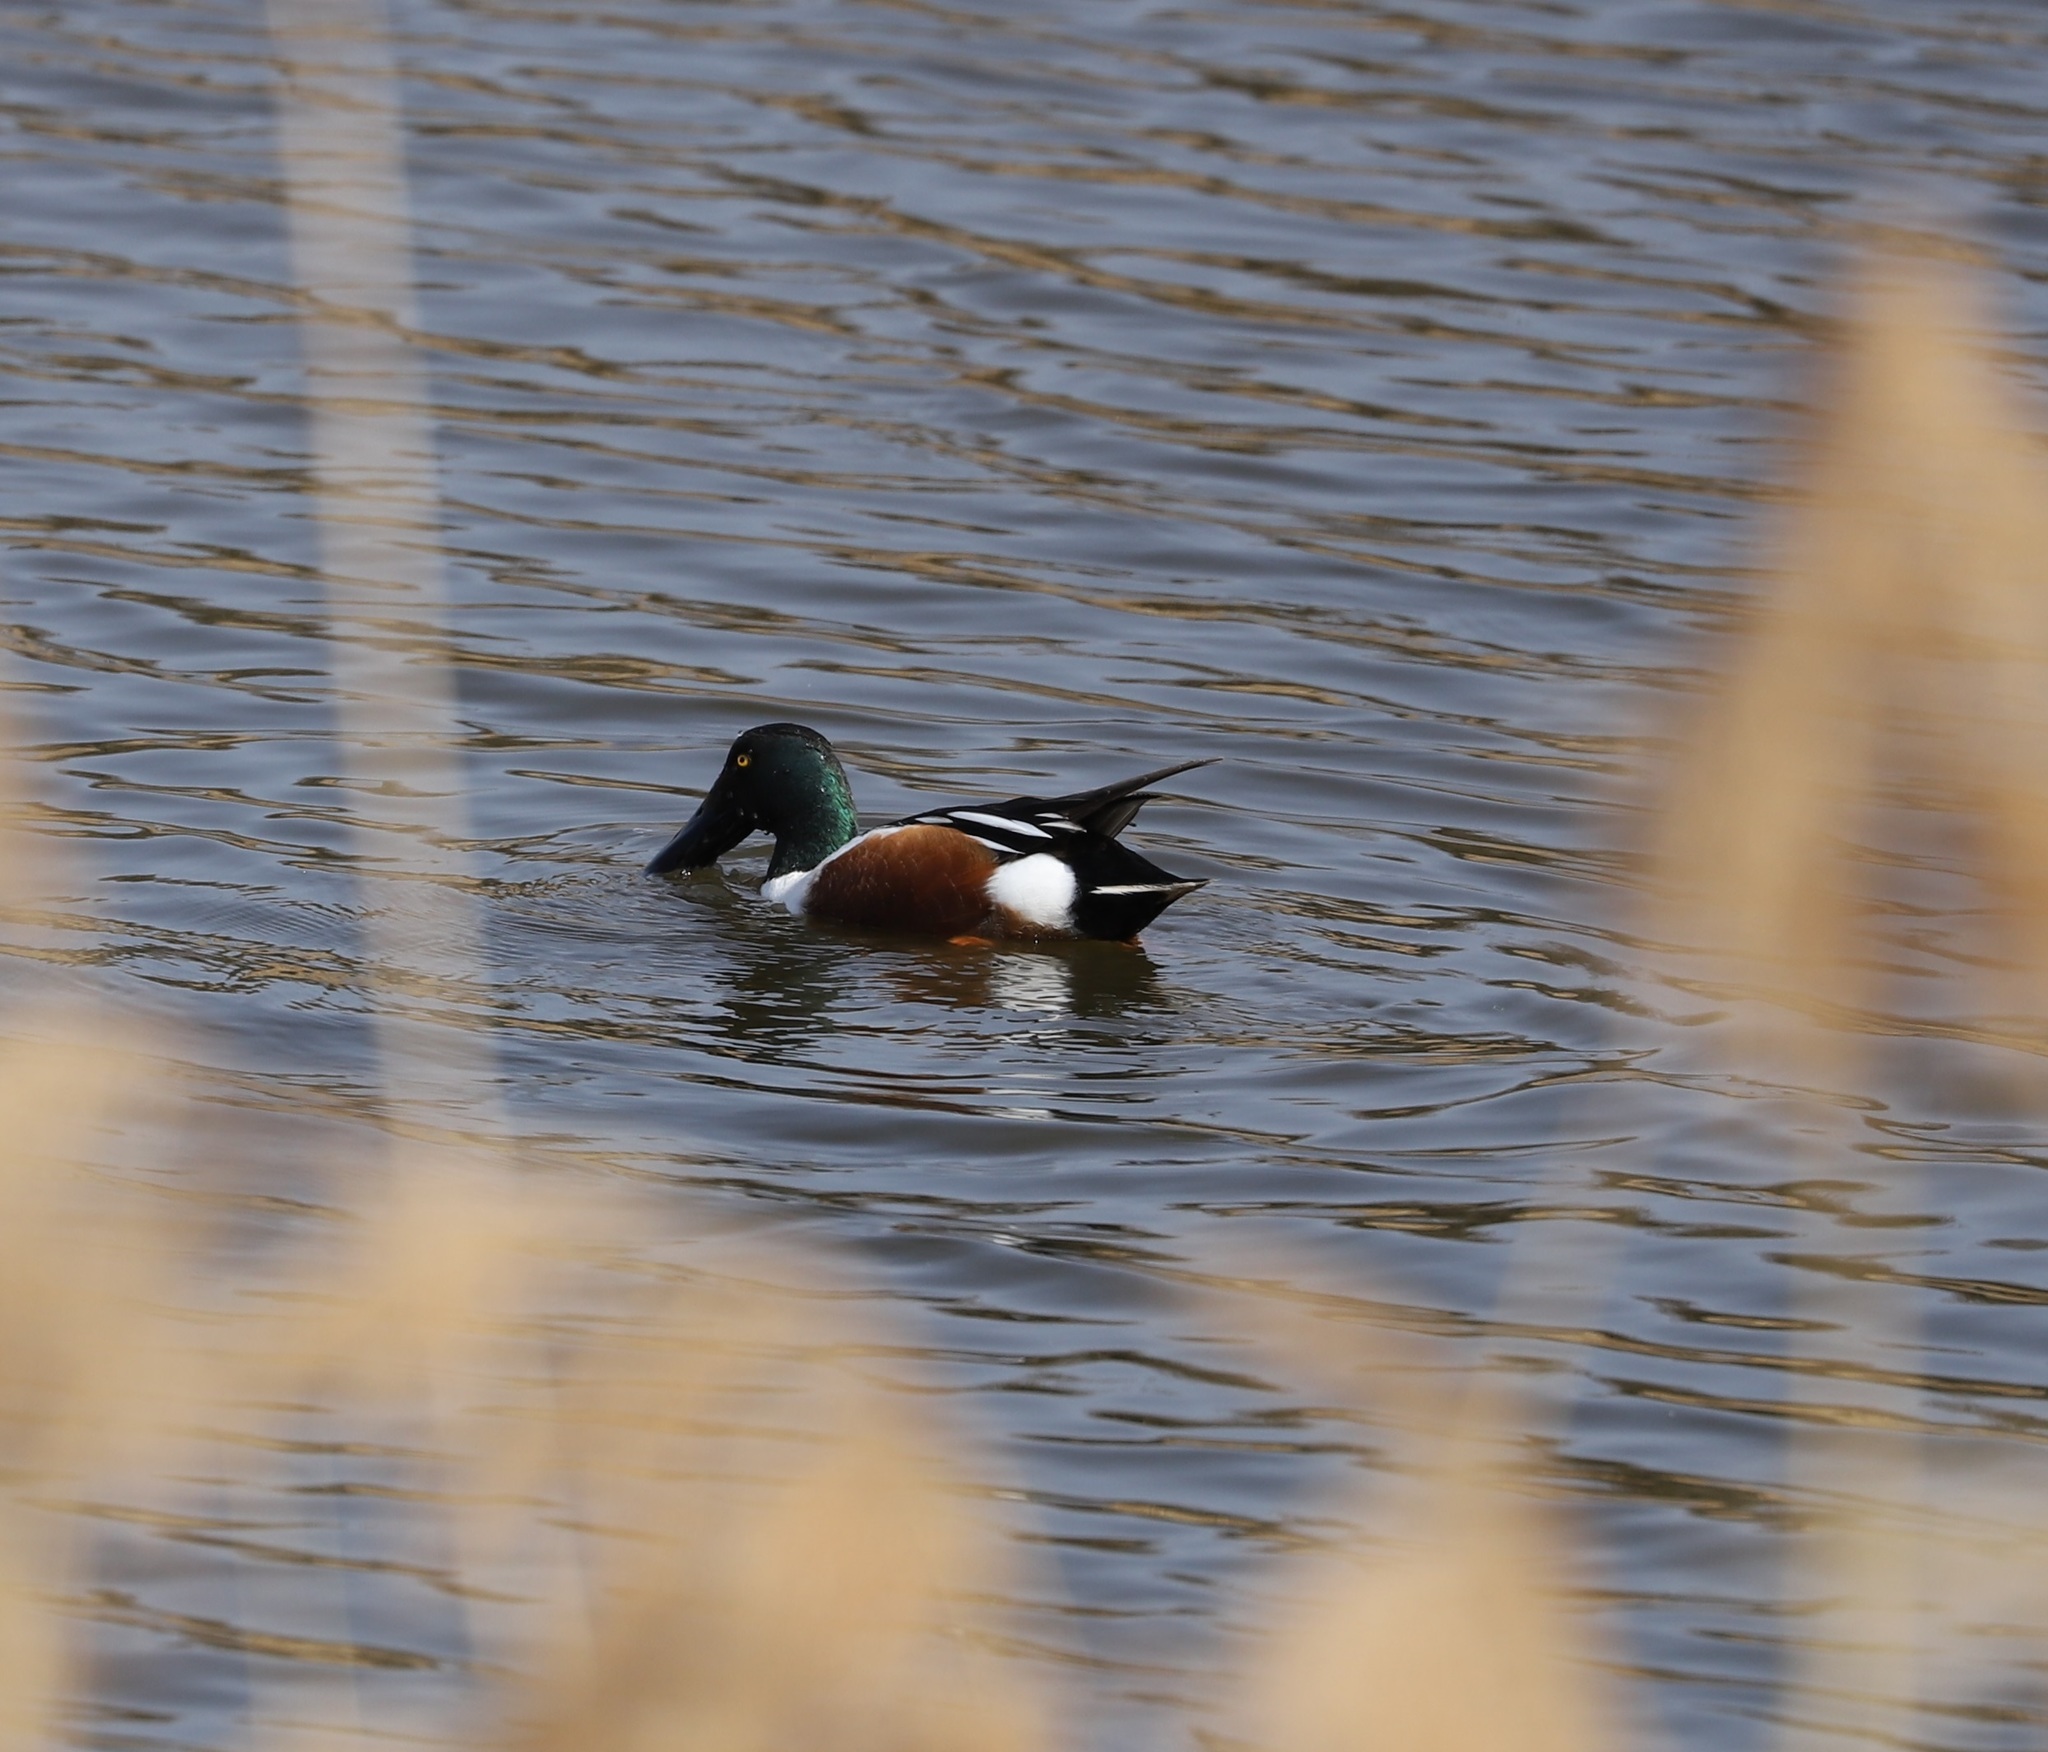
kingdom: Animalia
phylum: Chordata
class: Aves
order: Anseriformes
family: Anatidae
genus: Spatula
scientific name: Spatula clypeata
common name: Northern shoveler
